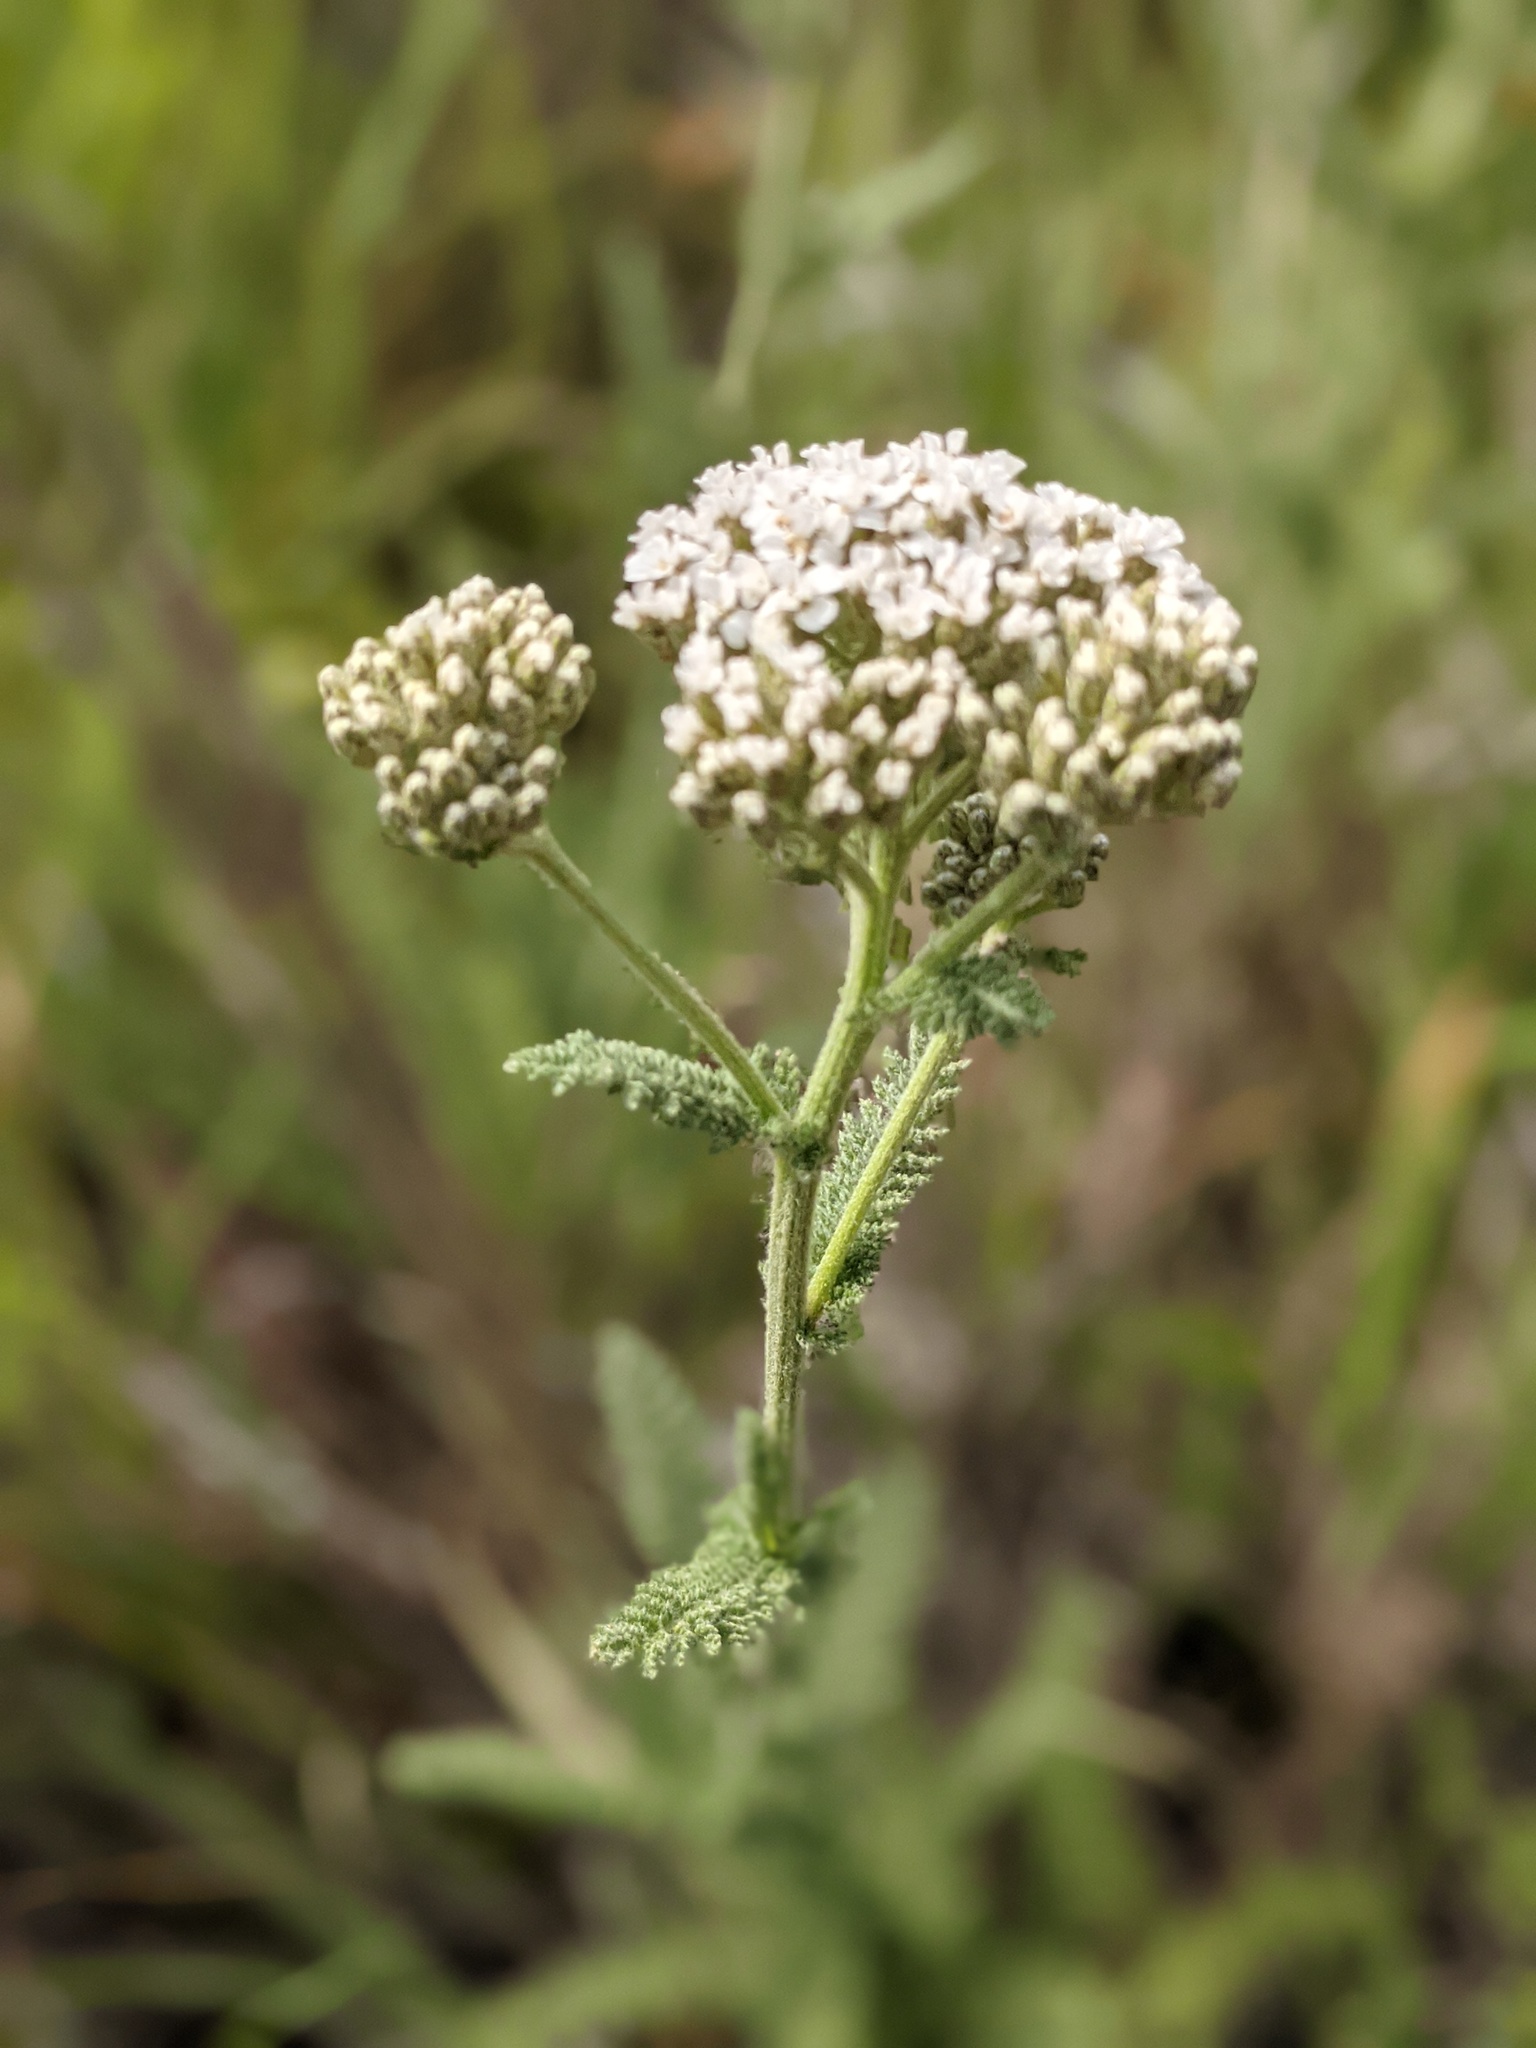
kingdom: Plantae
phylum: Tracheophyta
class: Magnoliopsida
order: Asterales
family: Asteraceae
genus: Achillea
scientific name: Achillea millefolium
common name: Yarrow
